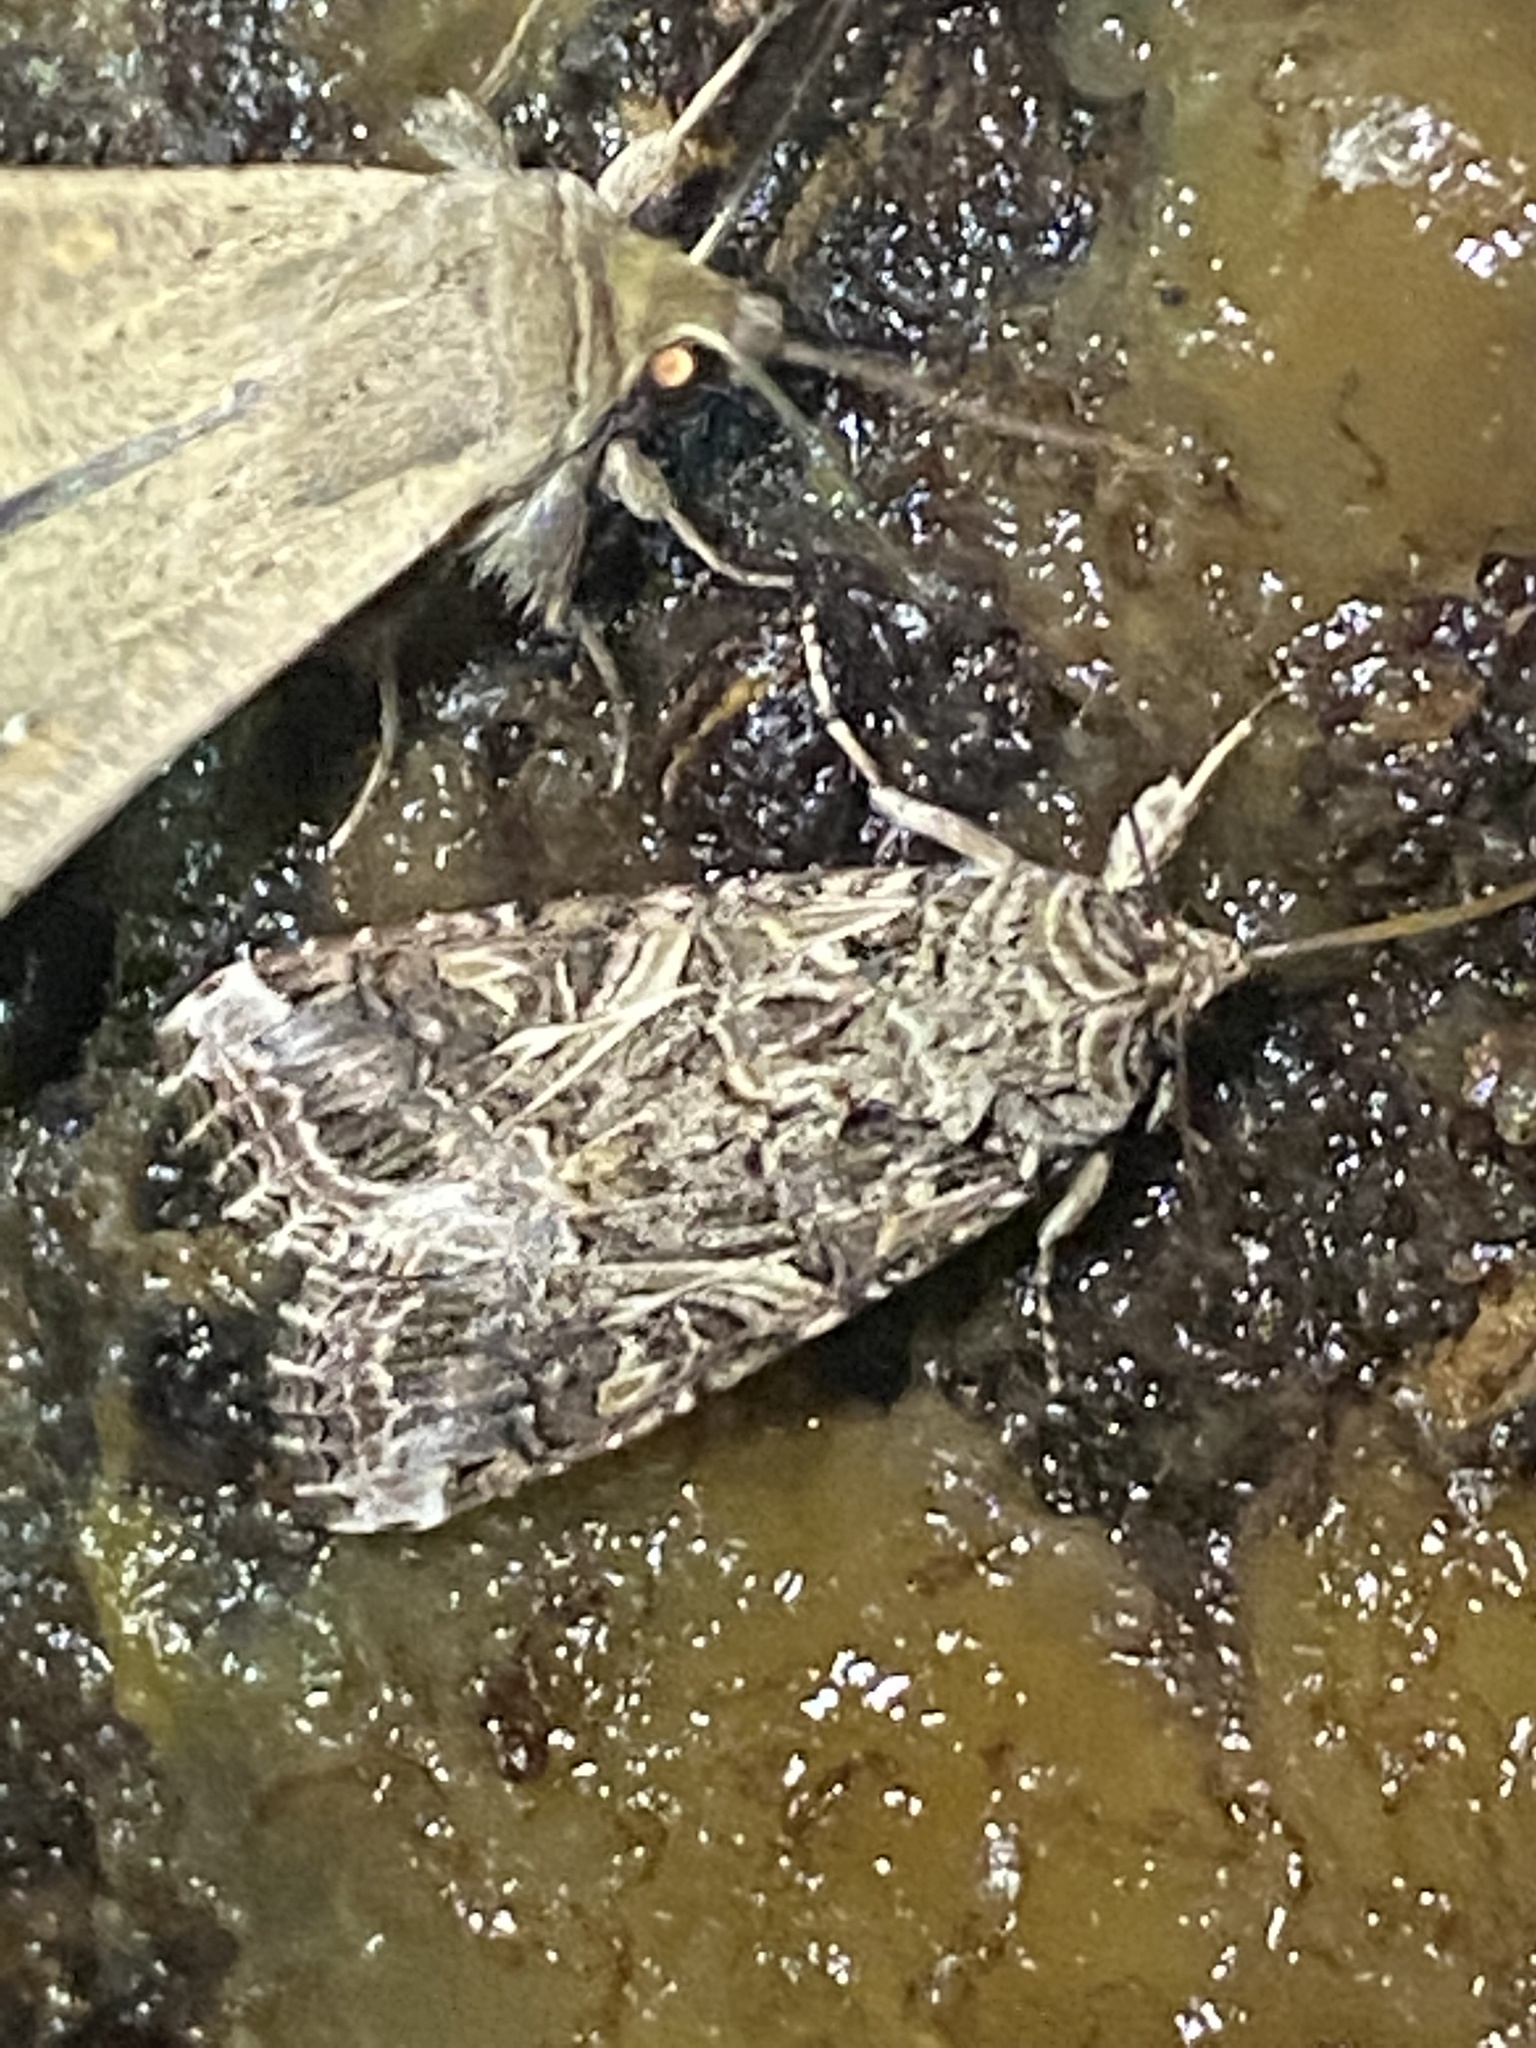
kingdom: Animalia
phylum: Arthropoda
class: Insecta
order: Lepidoptera
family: Noctuidae
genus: Spodoptera
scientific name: Spodoptera ornithogalli
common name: Yellow-striped armyworm
